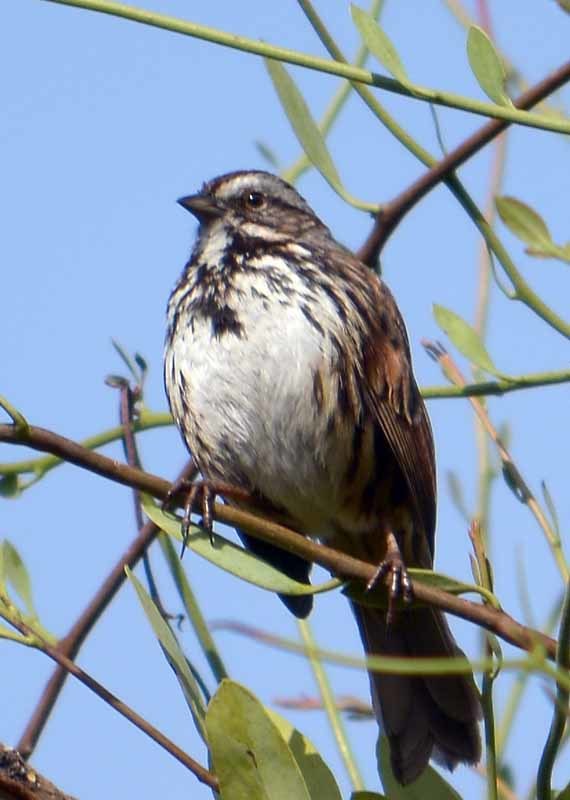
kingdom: Animalia
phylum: Chordata
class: Aves
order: Passeriformes
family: Passerellidae
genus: Melospiza
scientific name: Melospiza melodia
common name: Song sparrow
